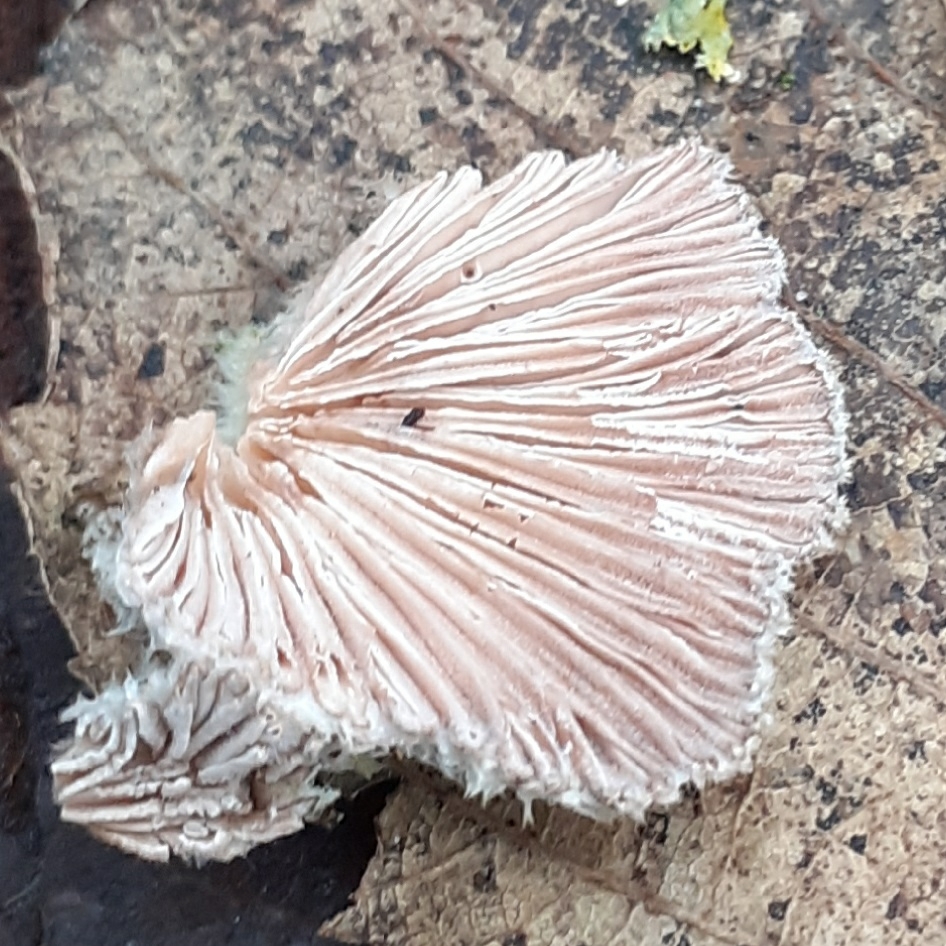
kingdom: Fungi
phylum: Basidiomycota
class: Agaricomycetes
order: Agaricales
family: Schizophyllaceae
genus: Schizophyllum
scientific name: Schizophyllum commune
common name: Common porecrust
